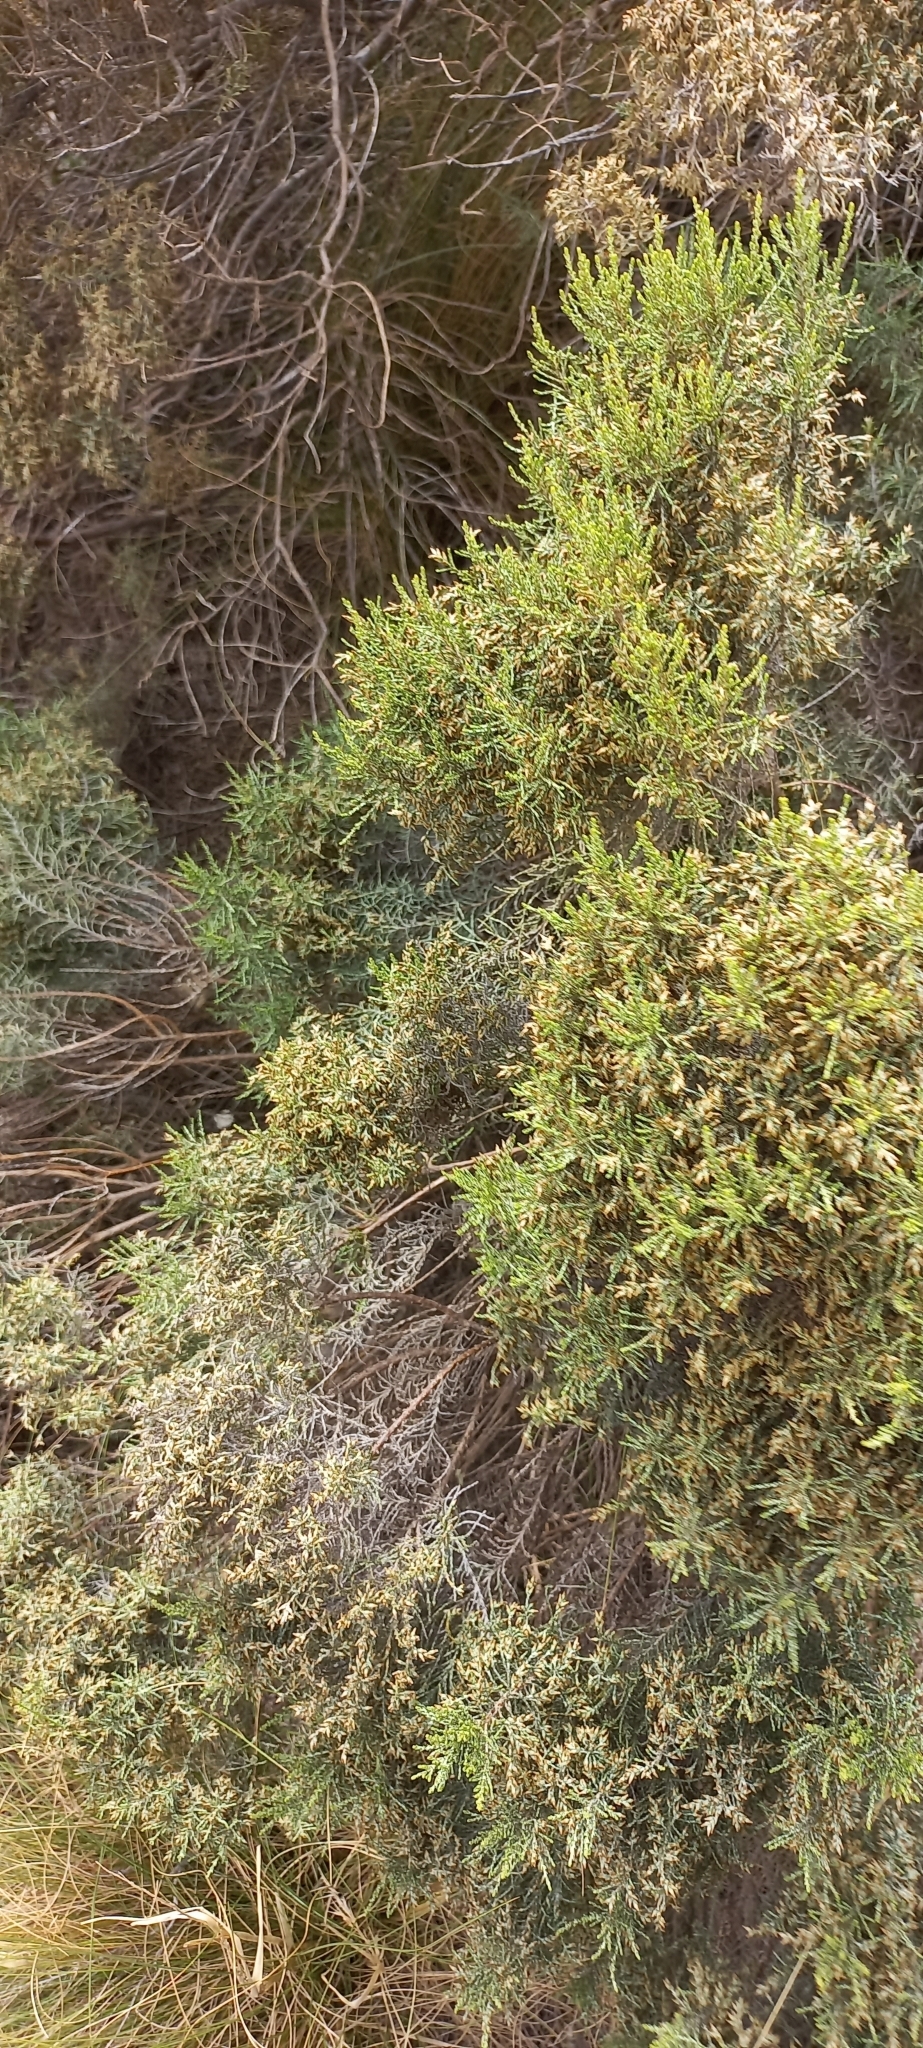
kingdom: Plantae
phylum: Tracheophyta
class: Magnoliopsida
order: Asterales
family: Asteraceae
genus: Dicerothamnus
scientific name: Dicerothamnus rhinocerotis
